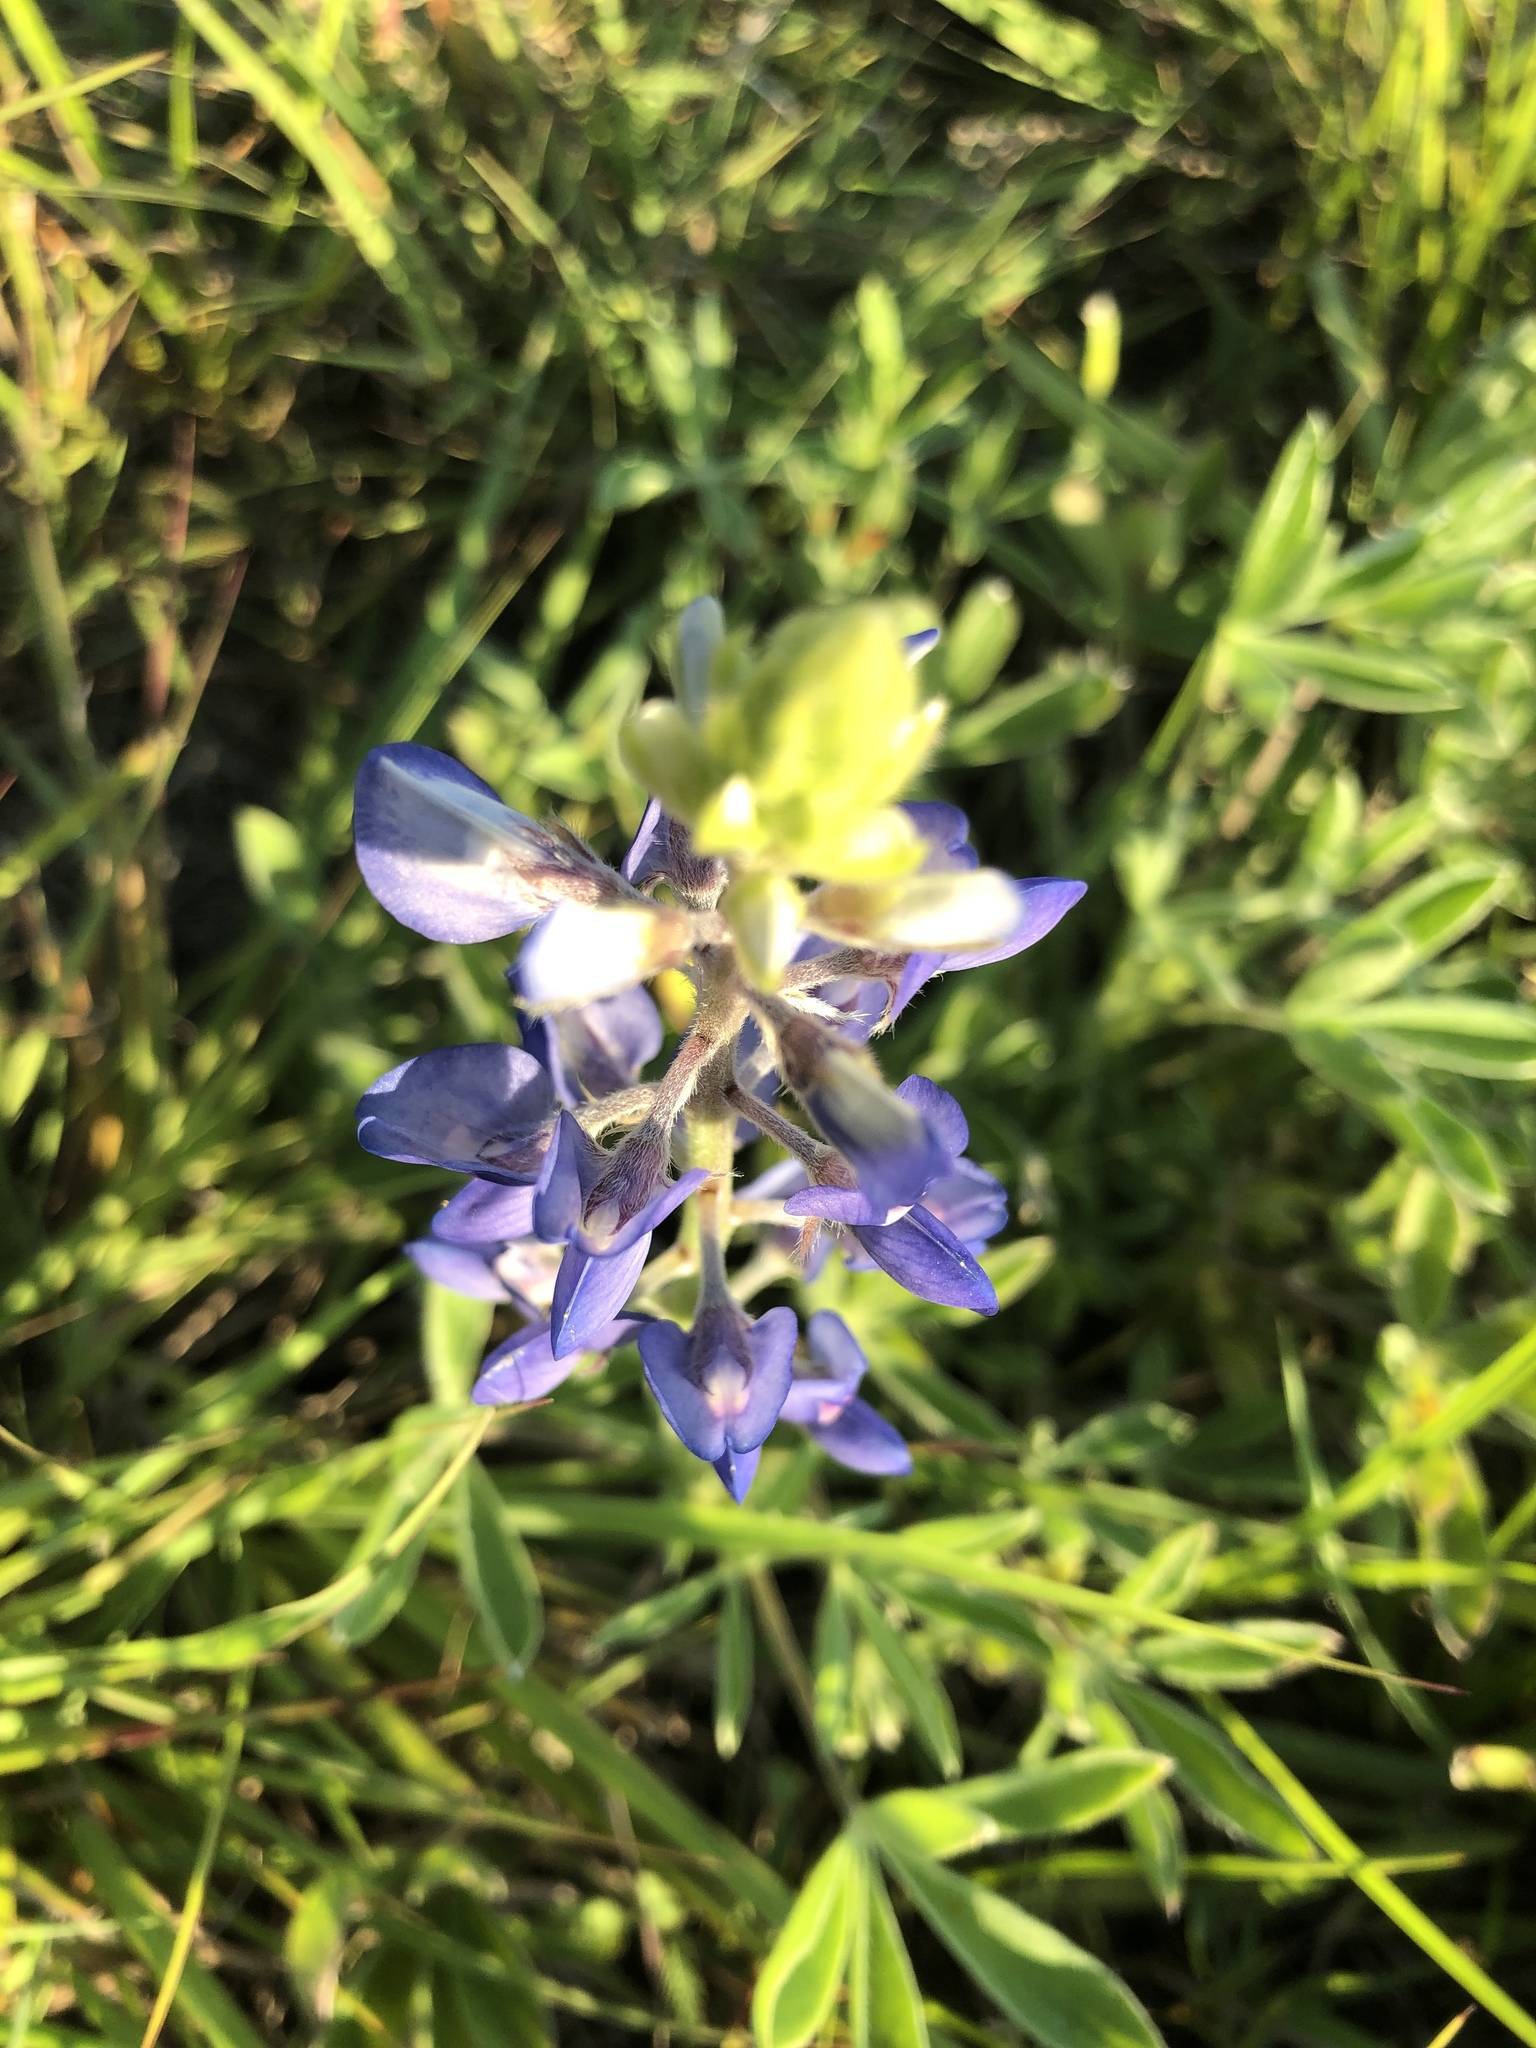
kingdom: Plantae
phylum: Tracheophyta
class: Magnoliopsida
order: Fabales
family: Fabaceae
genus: Lupinus
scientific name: Lupinus texensis
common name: Texas bluebonnet
